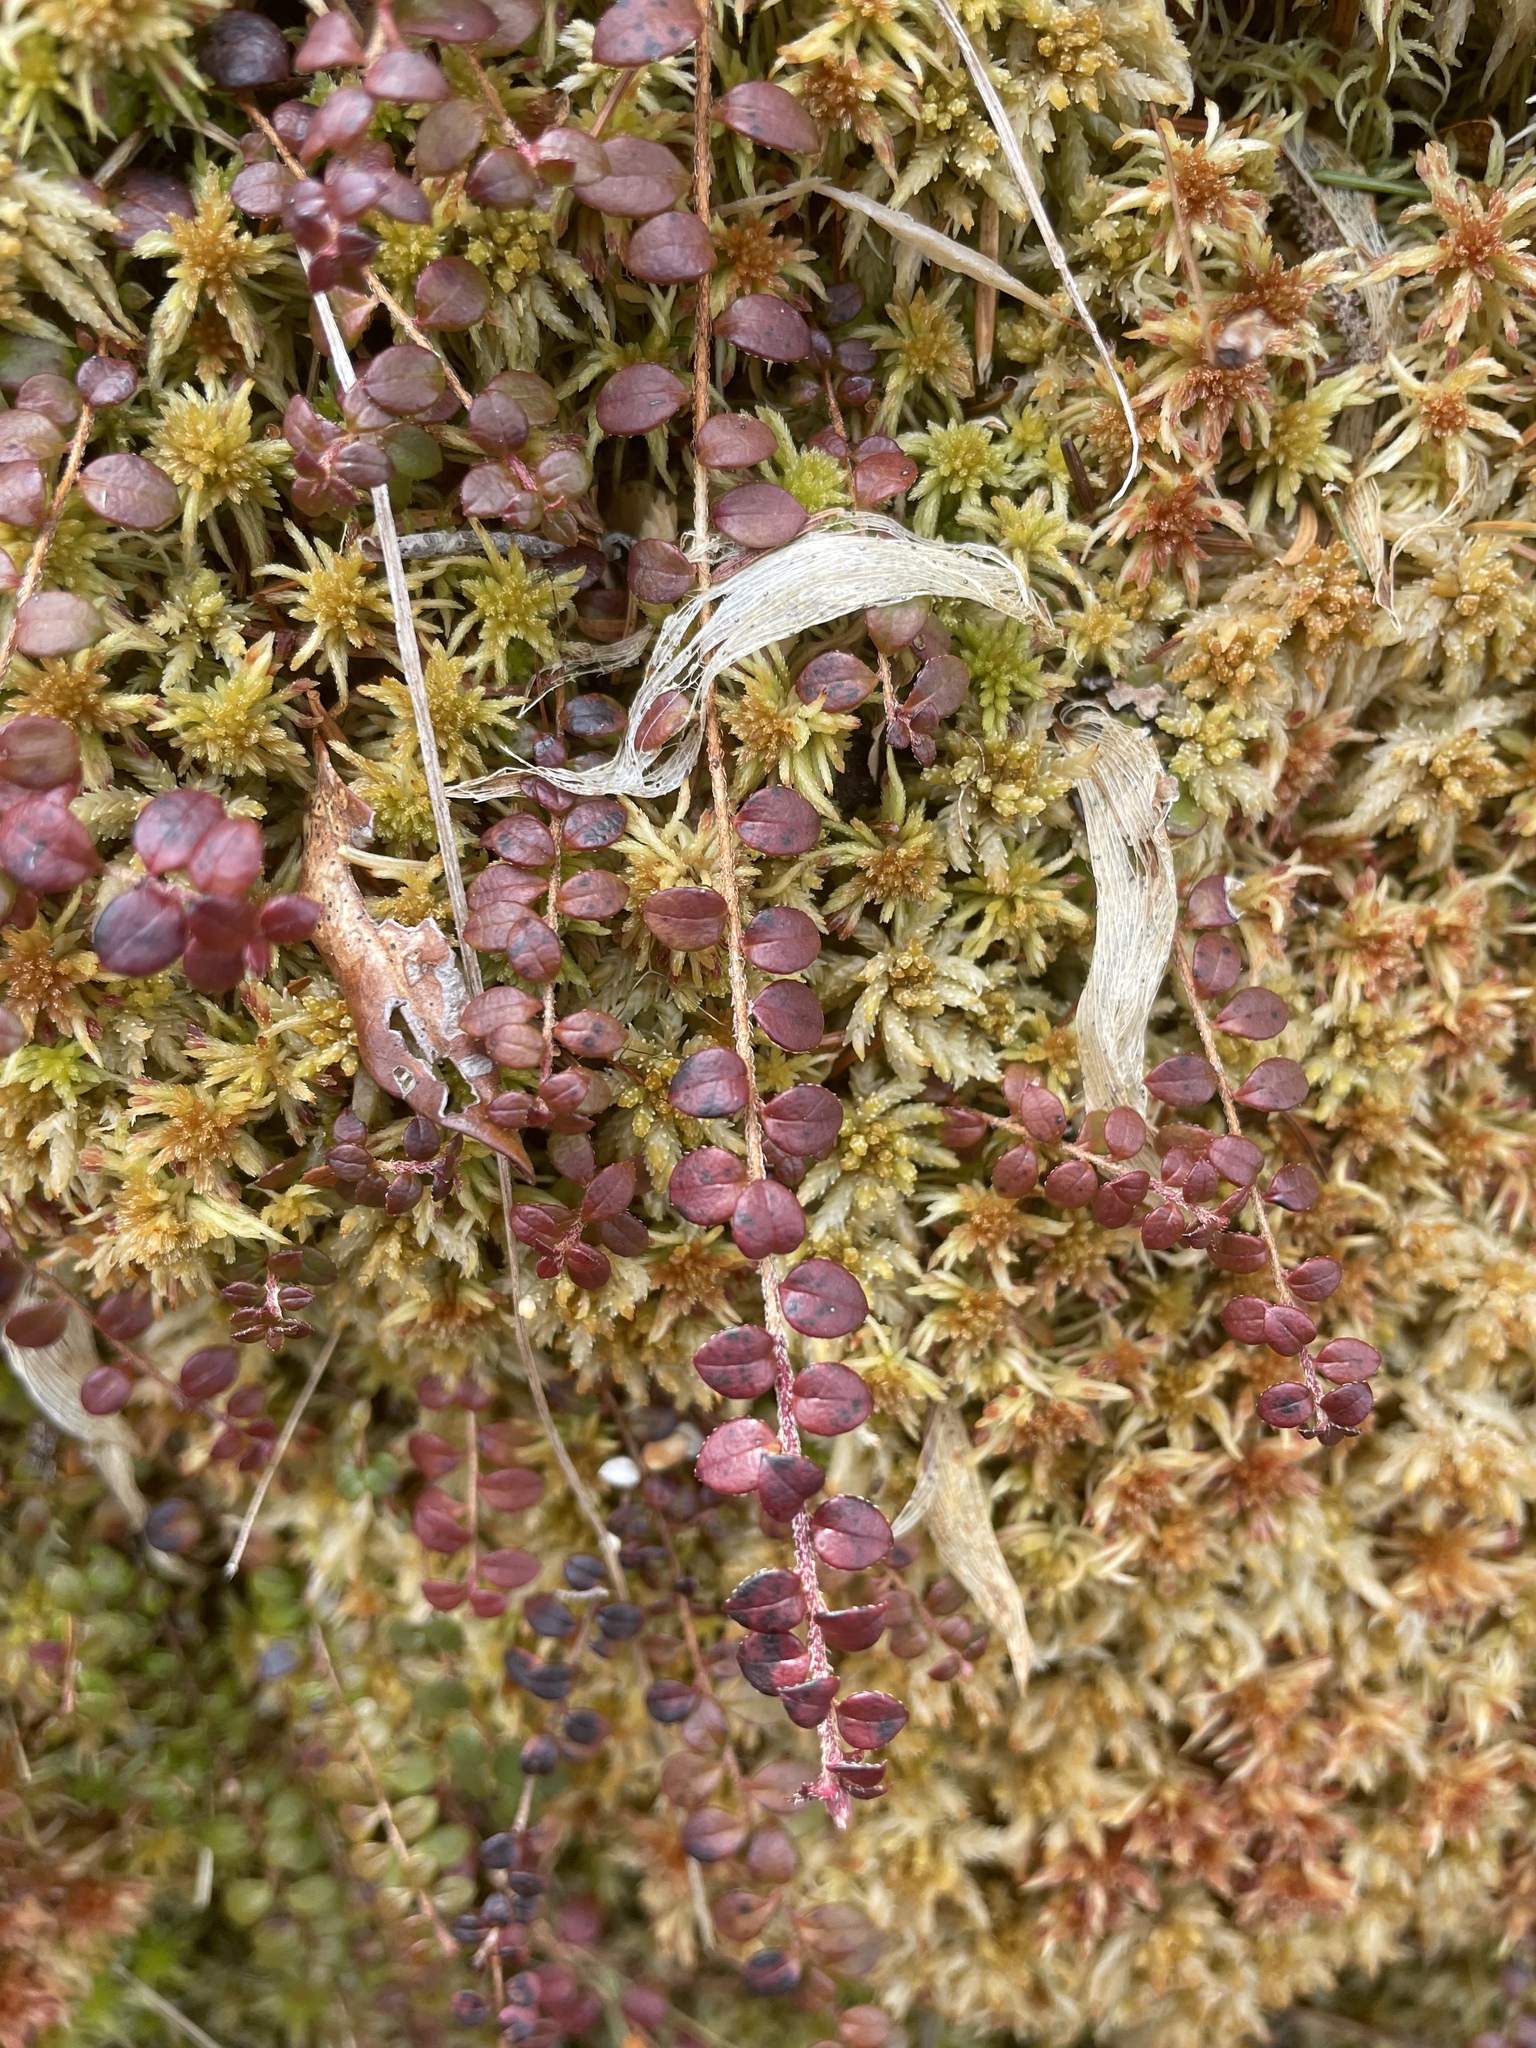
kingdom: Plantae
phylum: Tracheophyta
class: Magnoliopsida
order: Ericales
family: Ericaceae
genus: Gaultheria
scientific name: Gaultheria hispidula
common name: Cancer wintergreen
